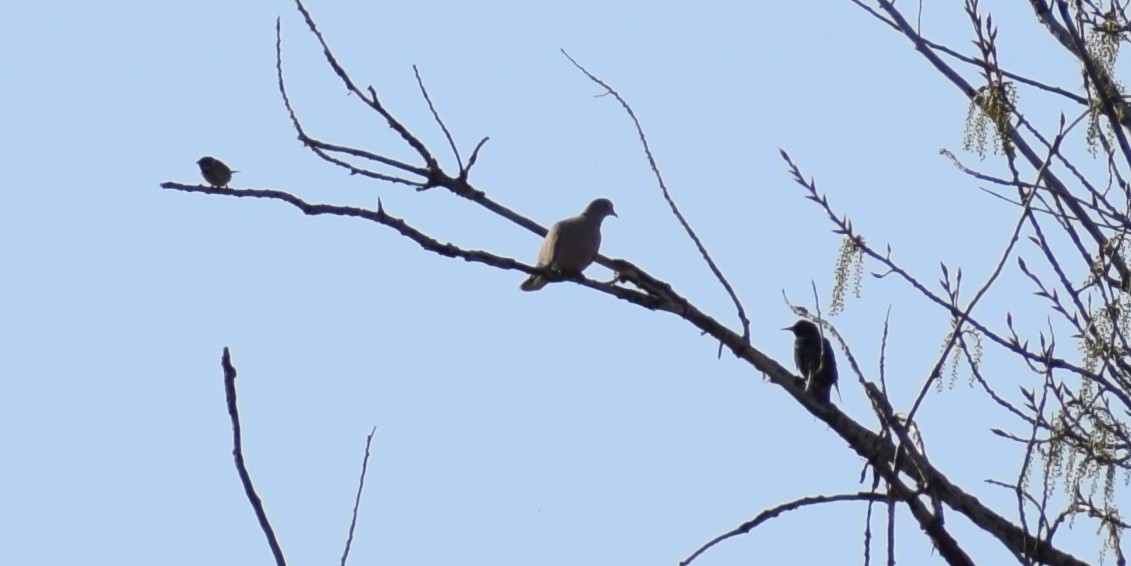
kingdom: Animalia
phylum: Chordata
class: Aves
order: Columbiformes
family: Columbidae
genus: Streptopelia
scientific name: Streptopelia decaocto
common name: Eurasian collared dove
